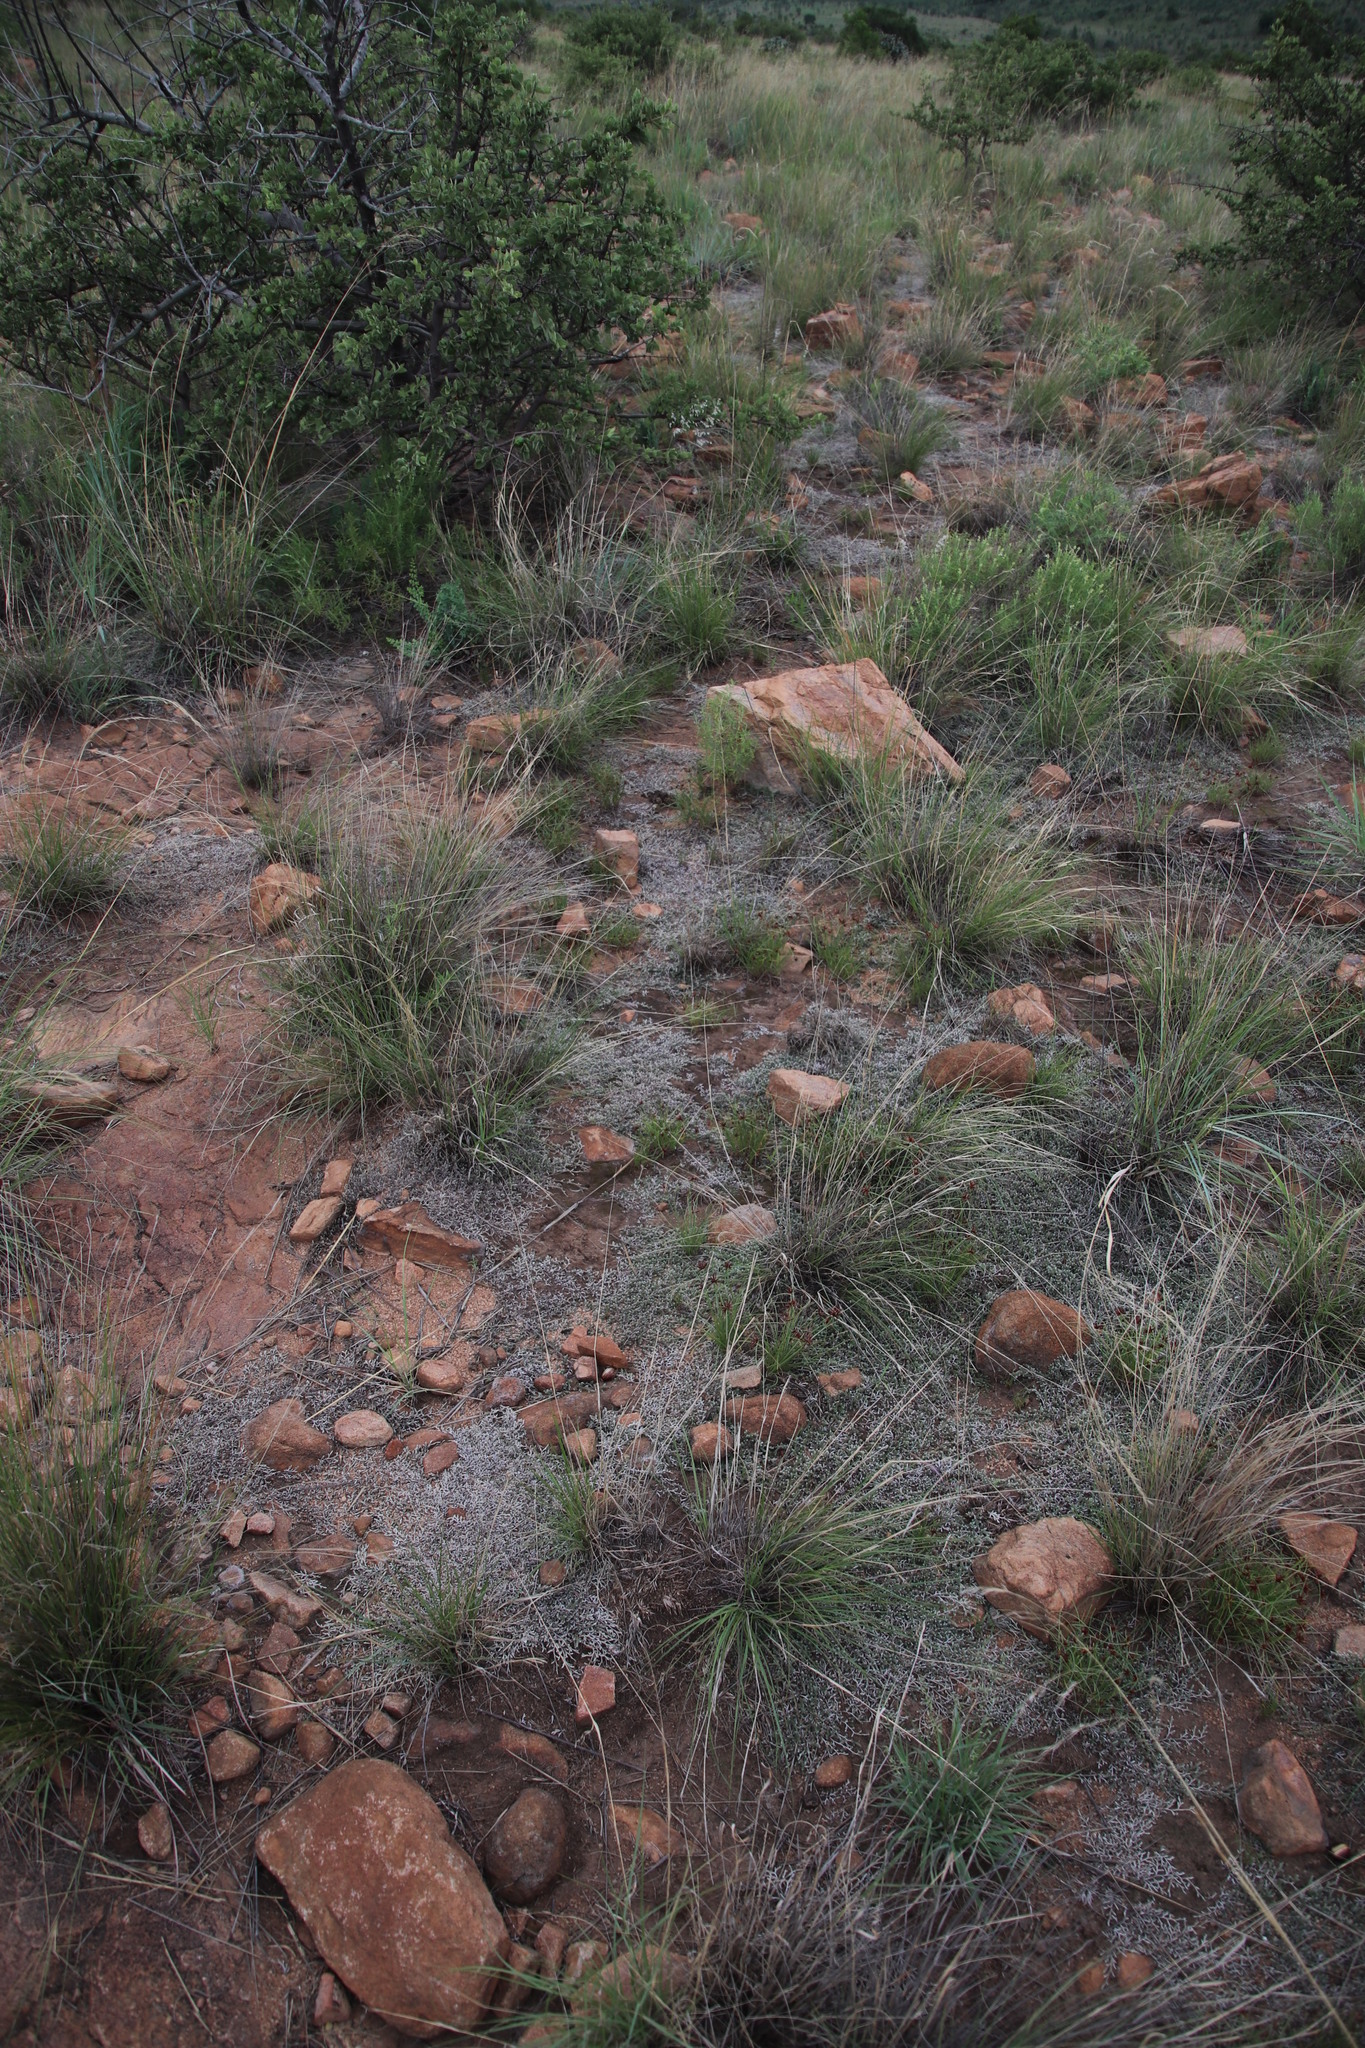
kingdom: Plantae
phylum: Tracheophyta
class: Lycopodiopsida
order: Selaginellales
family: Selaginellaceae
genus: Selaginella
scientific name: Selaginella dregei
